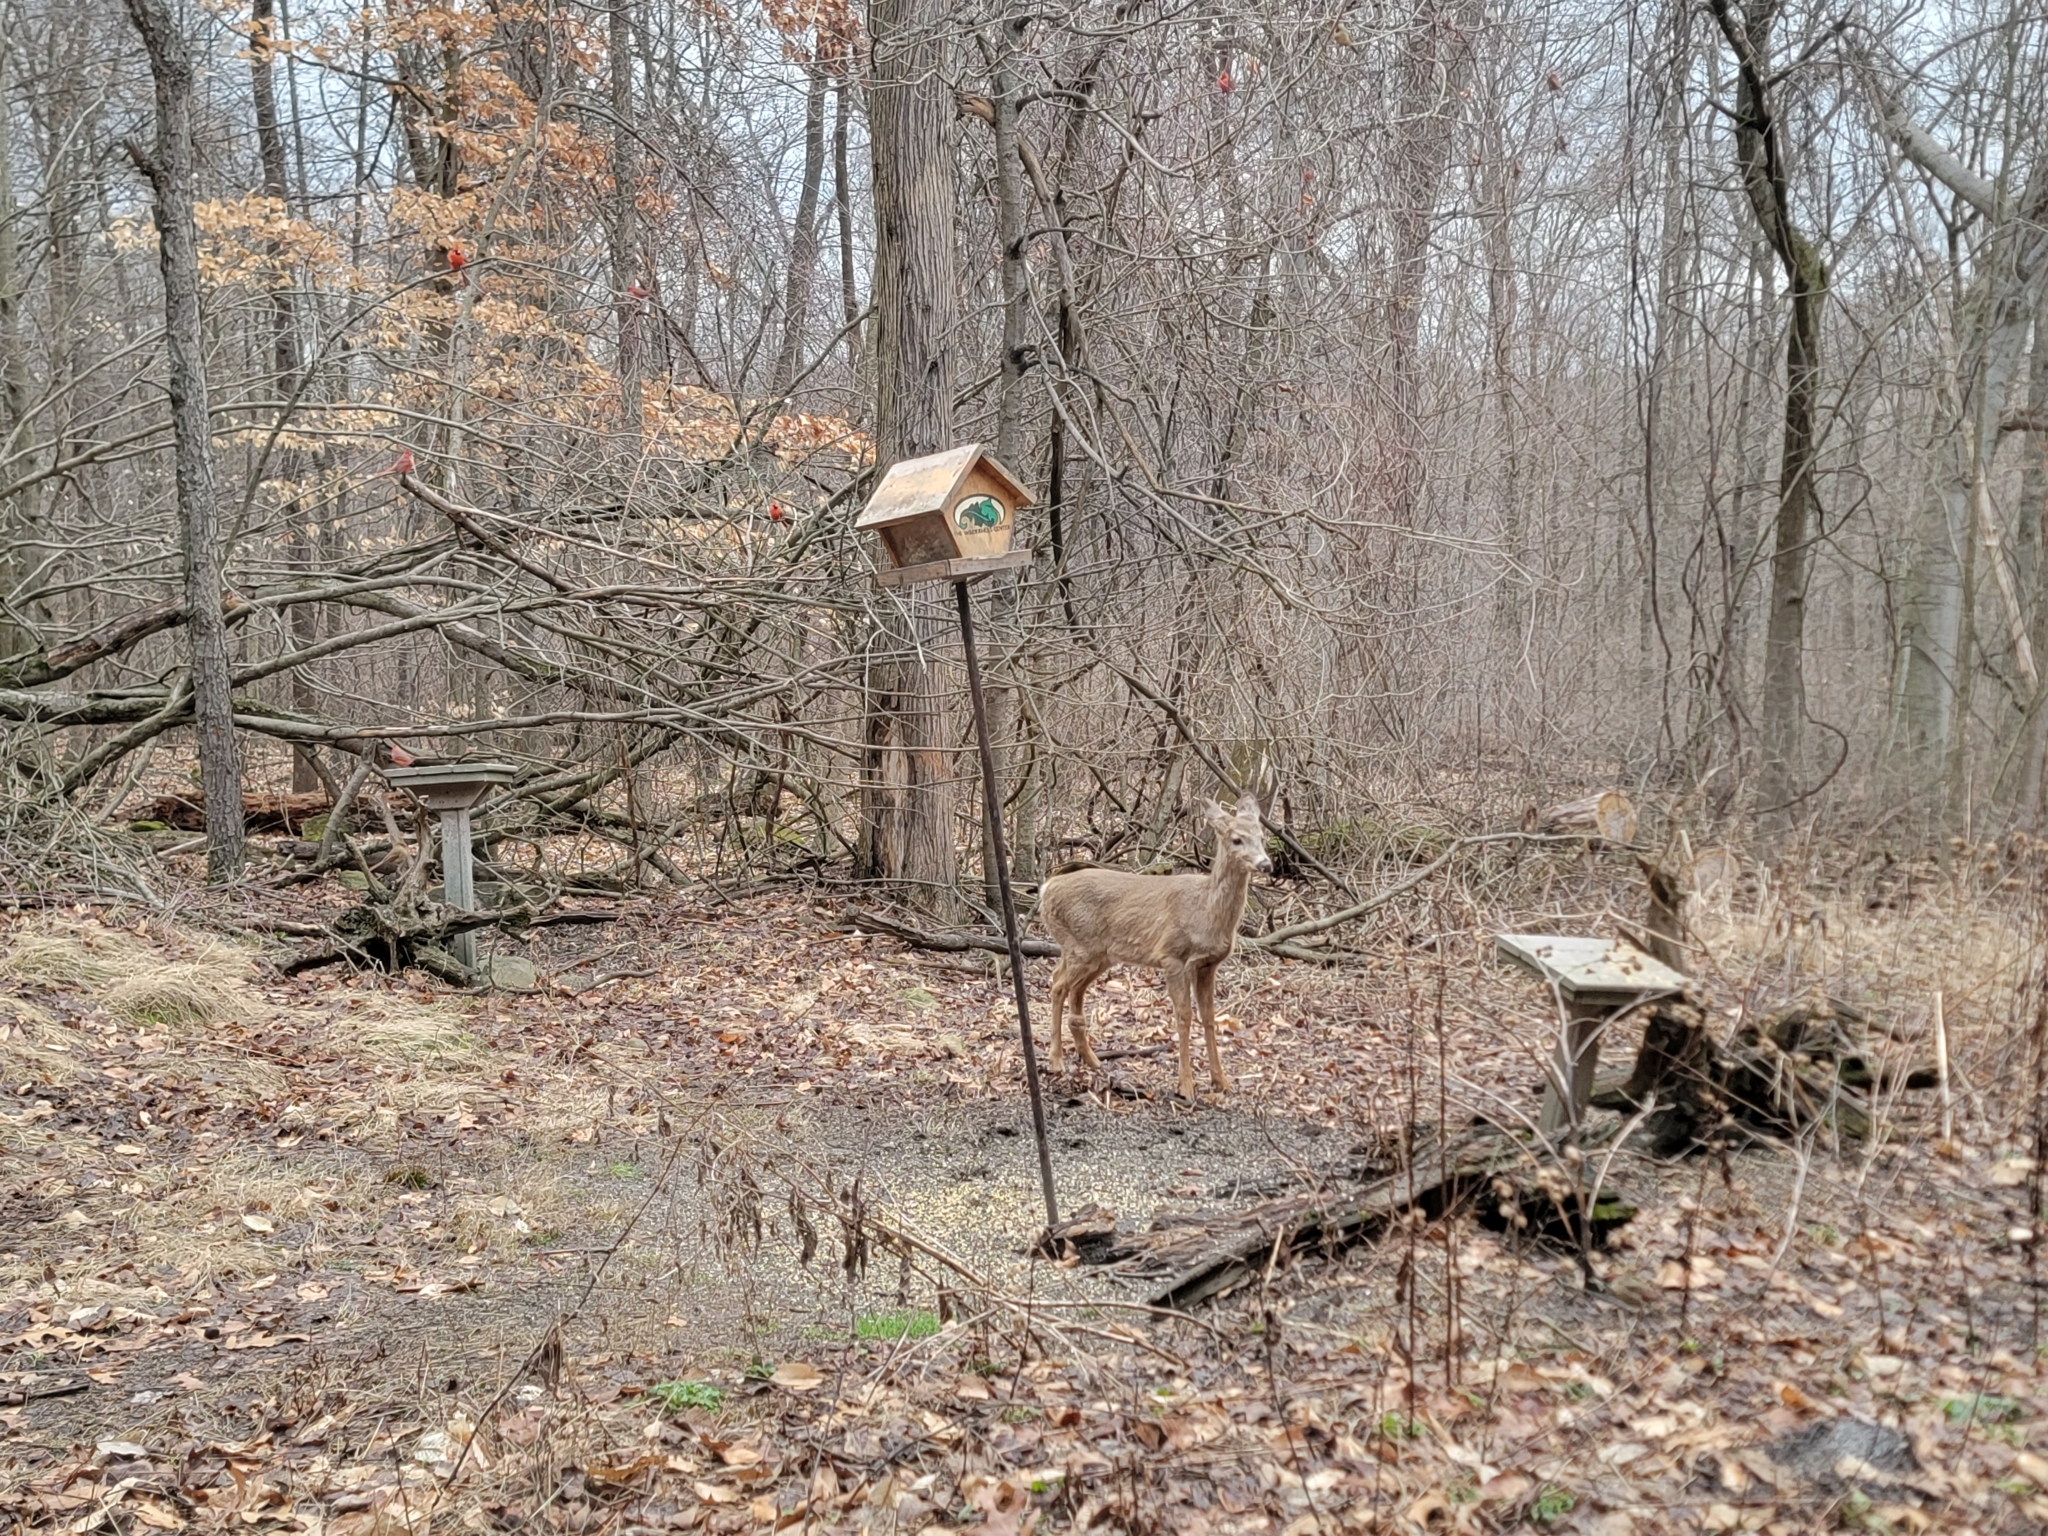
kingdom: Animalia
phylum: Chordata
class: Mammalia
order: Artiodactyla
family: Cervidae
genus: Odocoileus
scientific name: Odocoileus virginianus
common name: White-tailed deer
